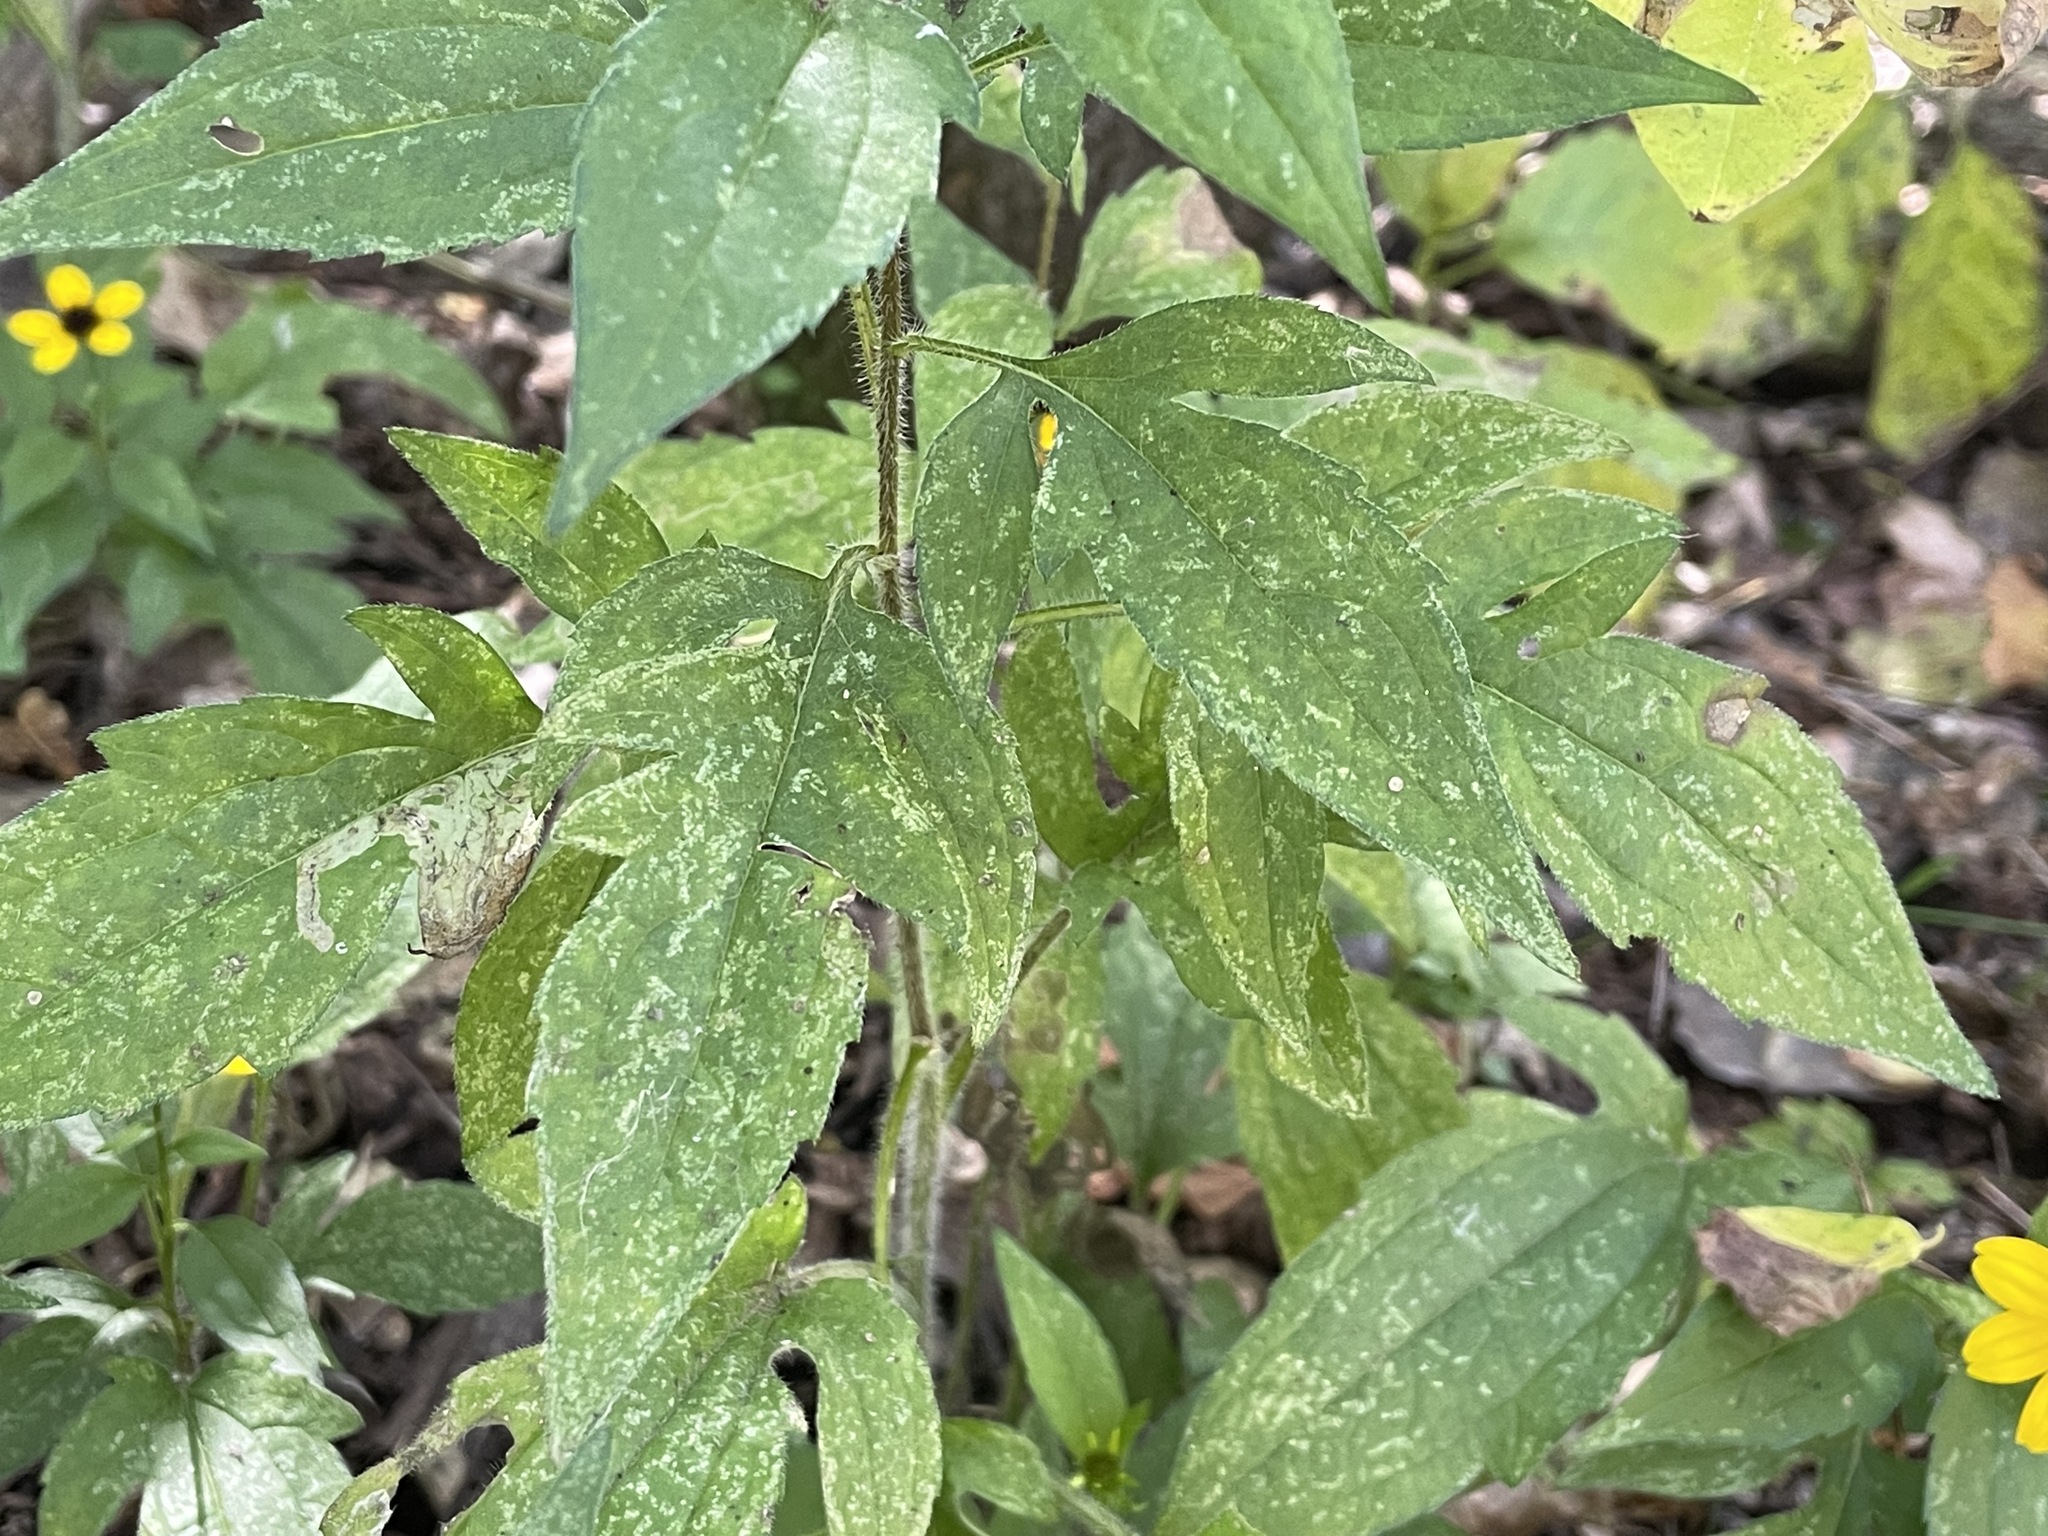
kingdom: Plantae
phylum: Tracheophyta
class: Magnoliopsida
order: Asterales
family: Asteraceae
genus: Rudbeckia
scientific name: Rudbeckia triloba
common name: Thin-leaved coneflower
